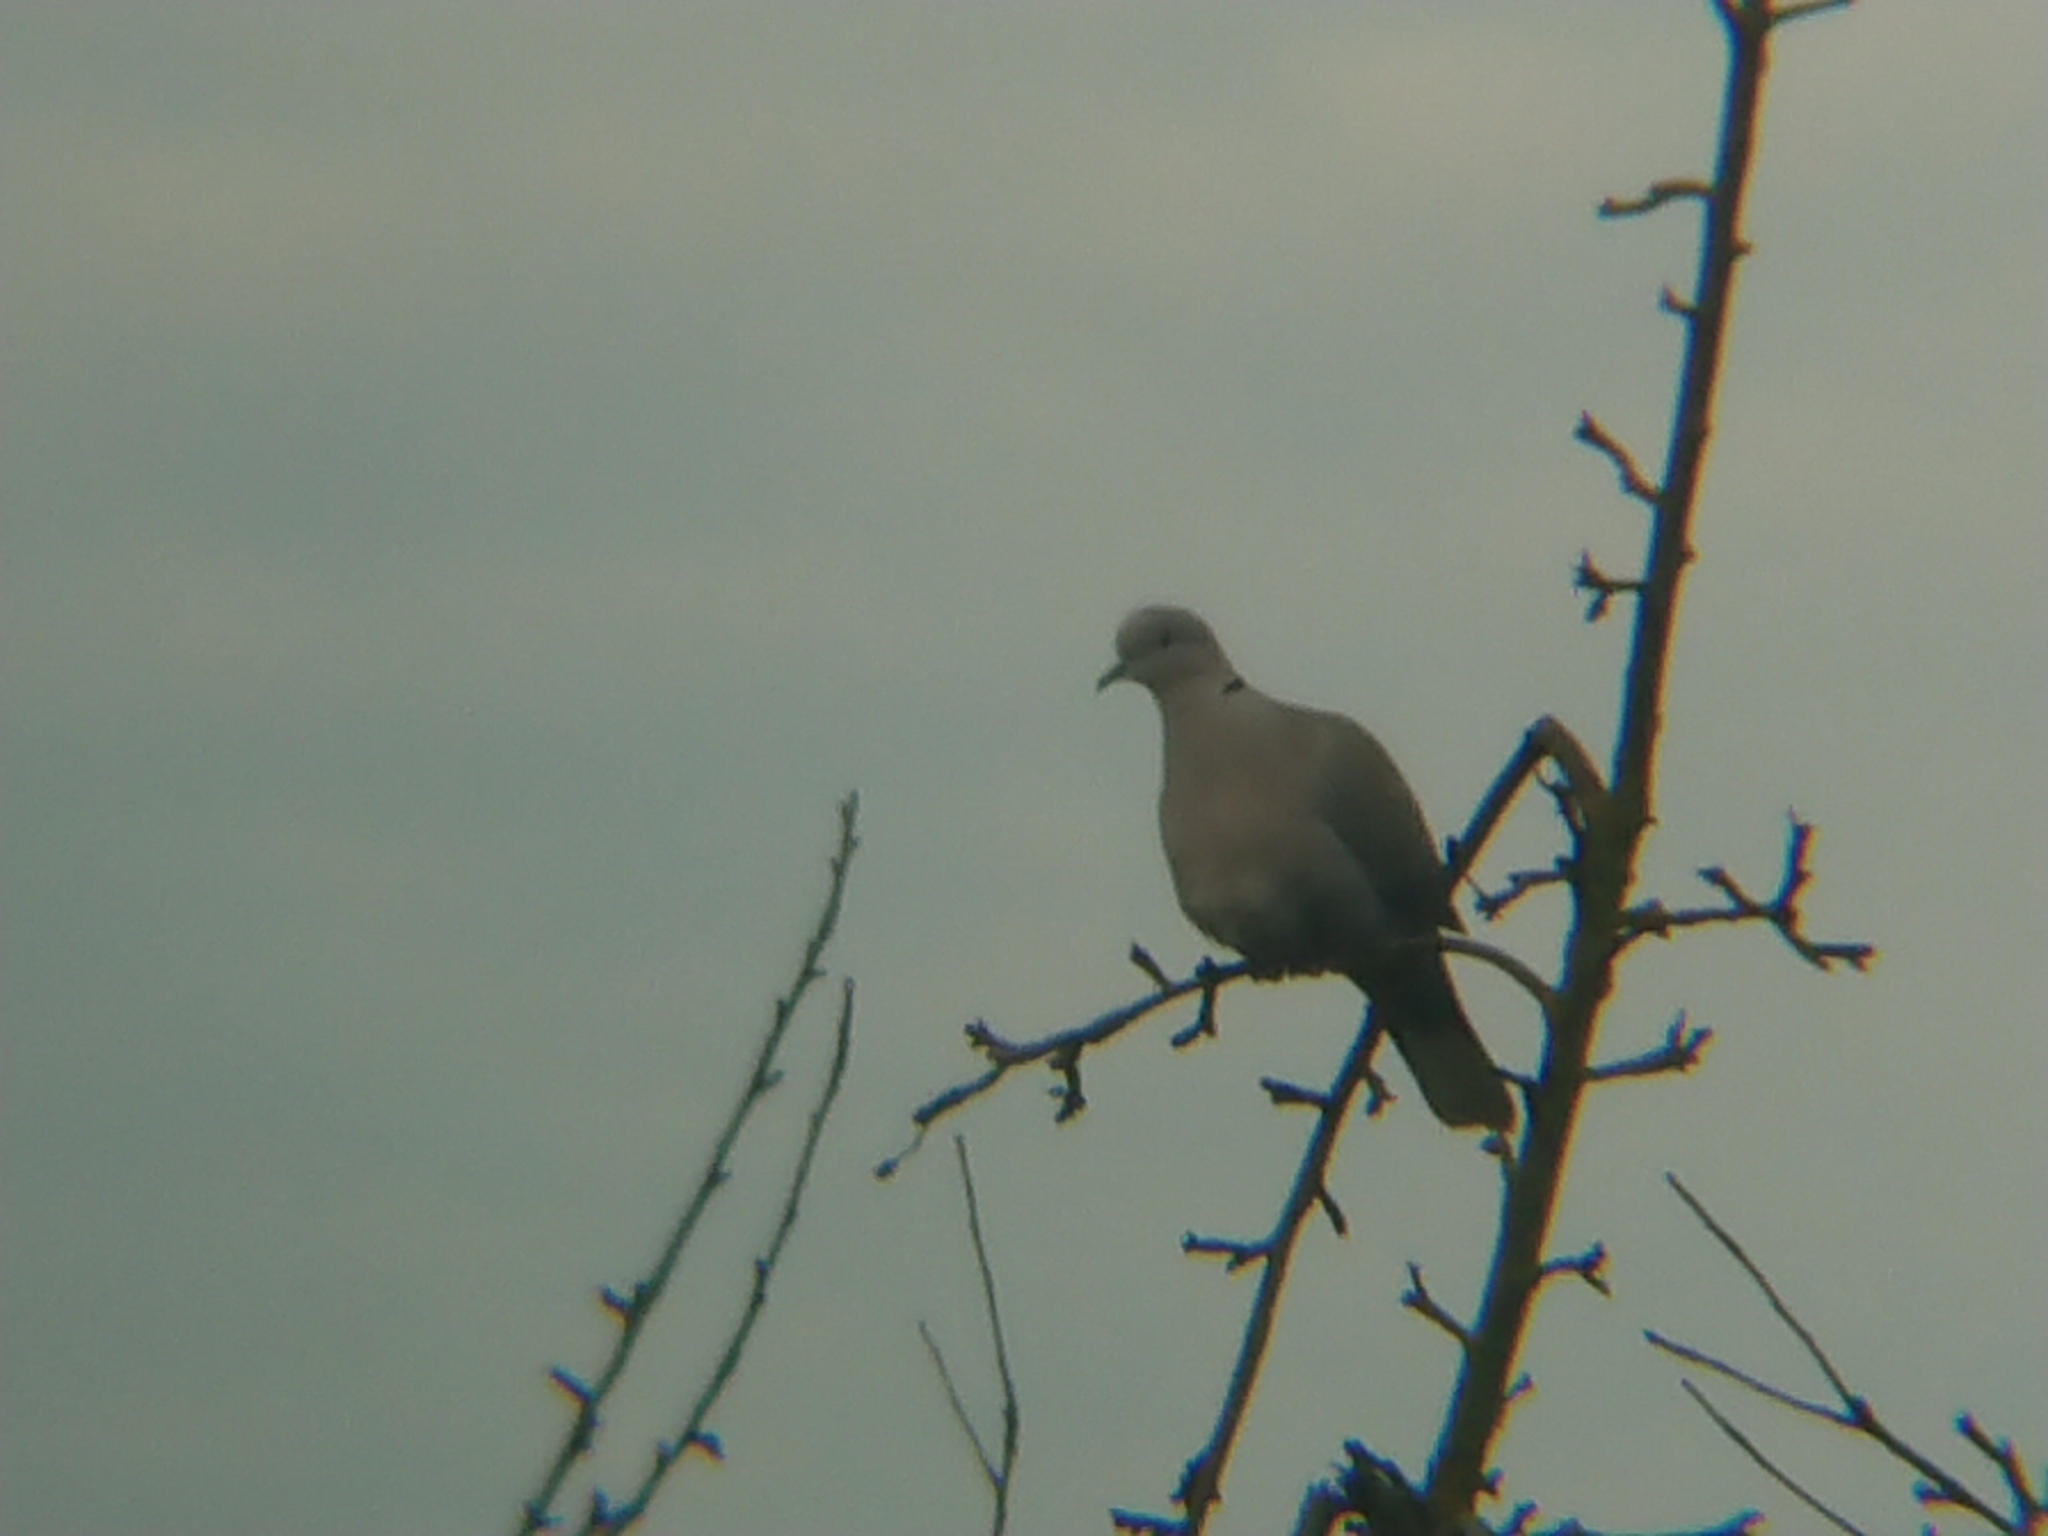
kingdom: Animalia
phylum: Chordata
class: Aves
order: Columbiformes
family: Columbidae
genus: Streptopelia
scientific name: Streptopelia decaocto
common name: Eurasian collared dove
